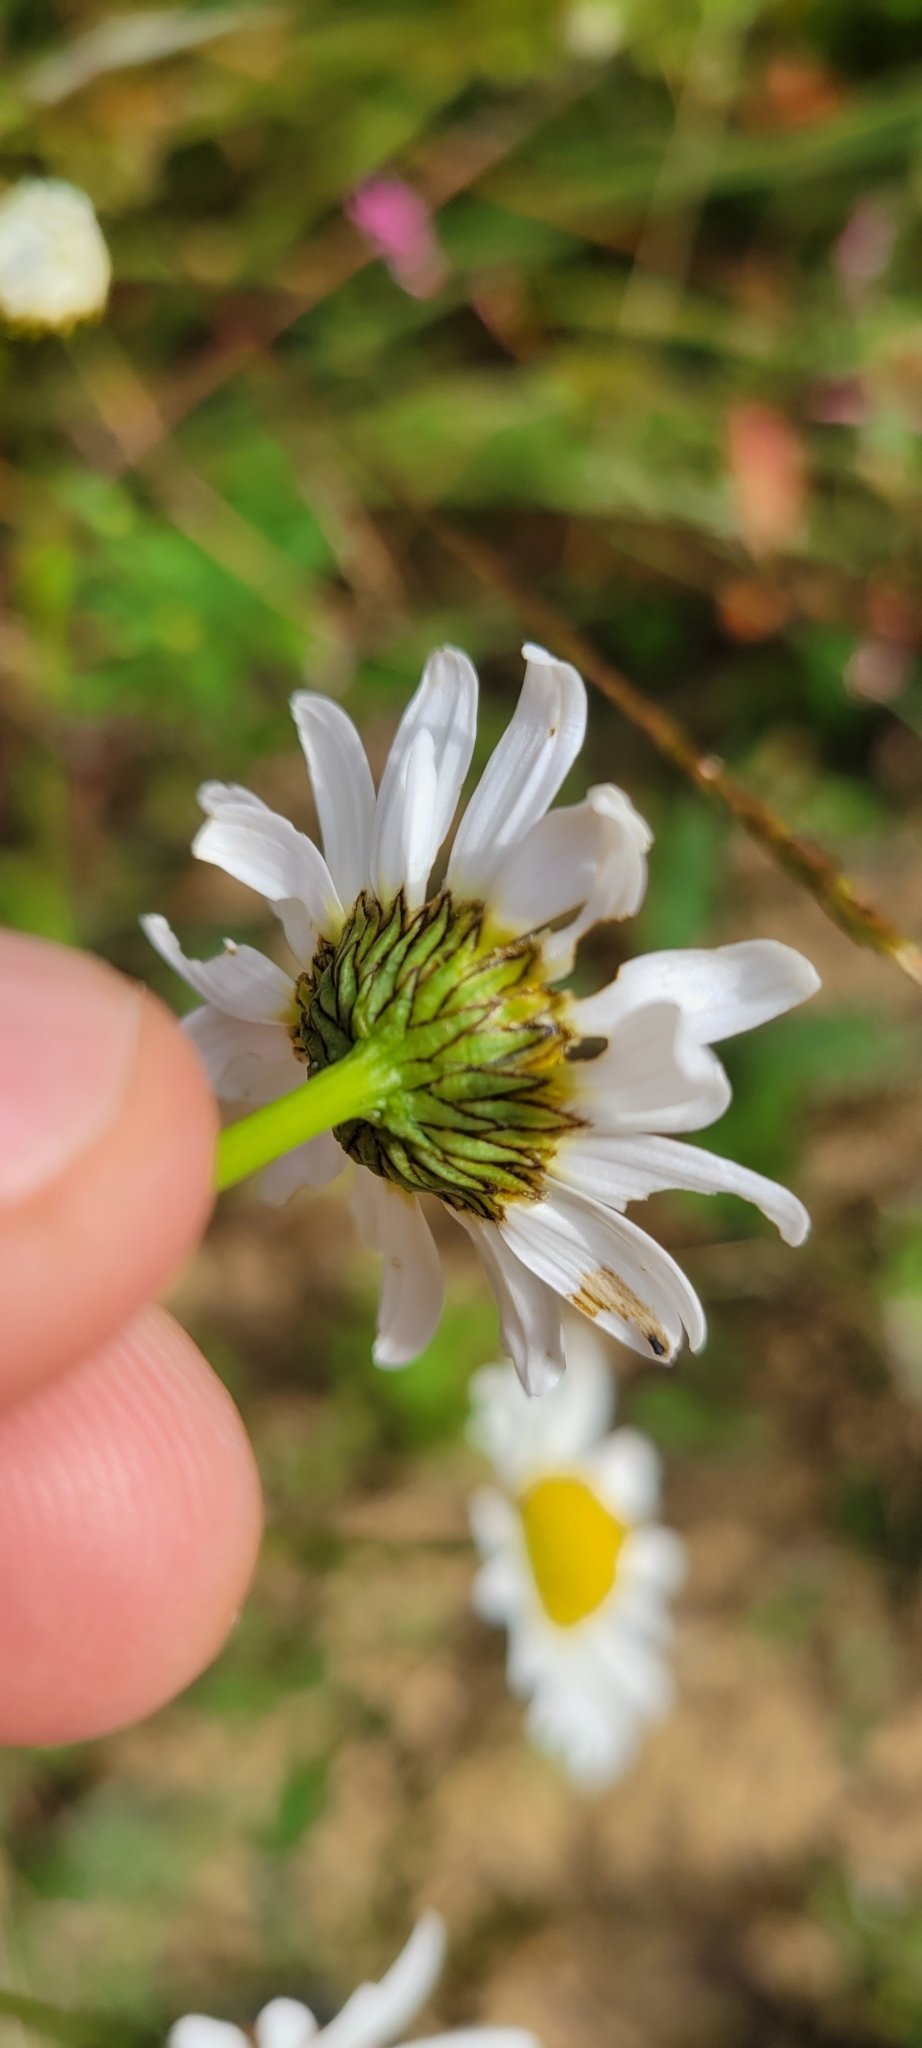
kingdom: Plantae
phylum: Tracheophyta
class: Magnoliopsida
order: Asterales
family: Asteraceae
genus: Leucanthemum
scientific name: Leucanthemum vulgare
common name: Oxeye daisy
